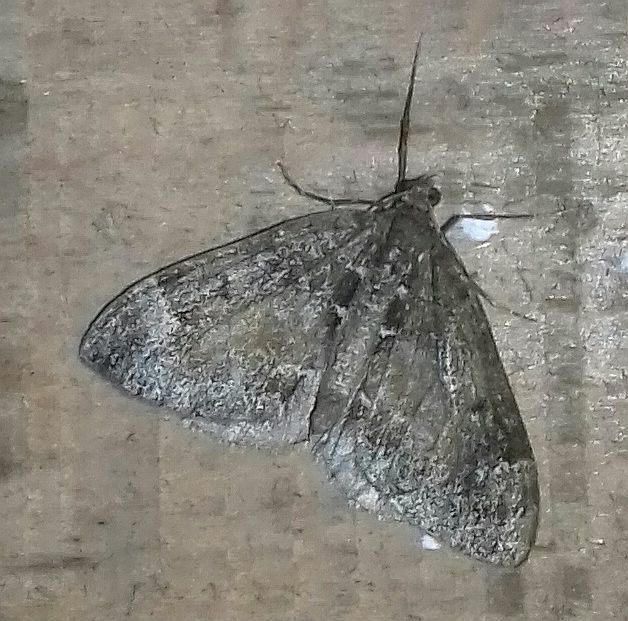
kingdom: Animalia
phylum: Arthropoda
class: Insecta
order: Lepidoptera
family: Geometridae
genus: Dysstroma
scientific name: Dysstroma truncata
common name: Common marbled carpet
